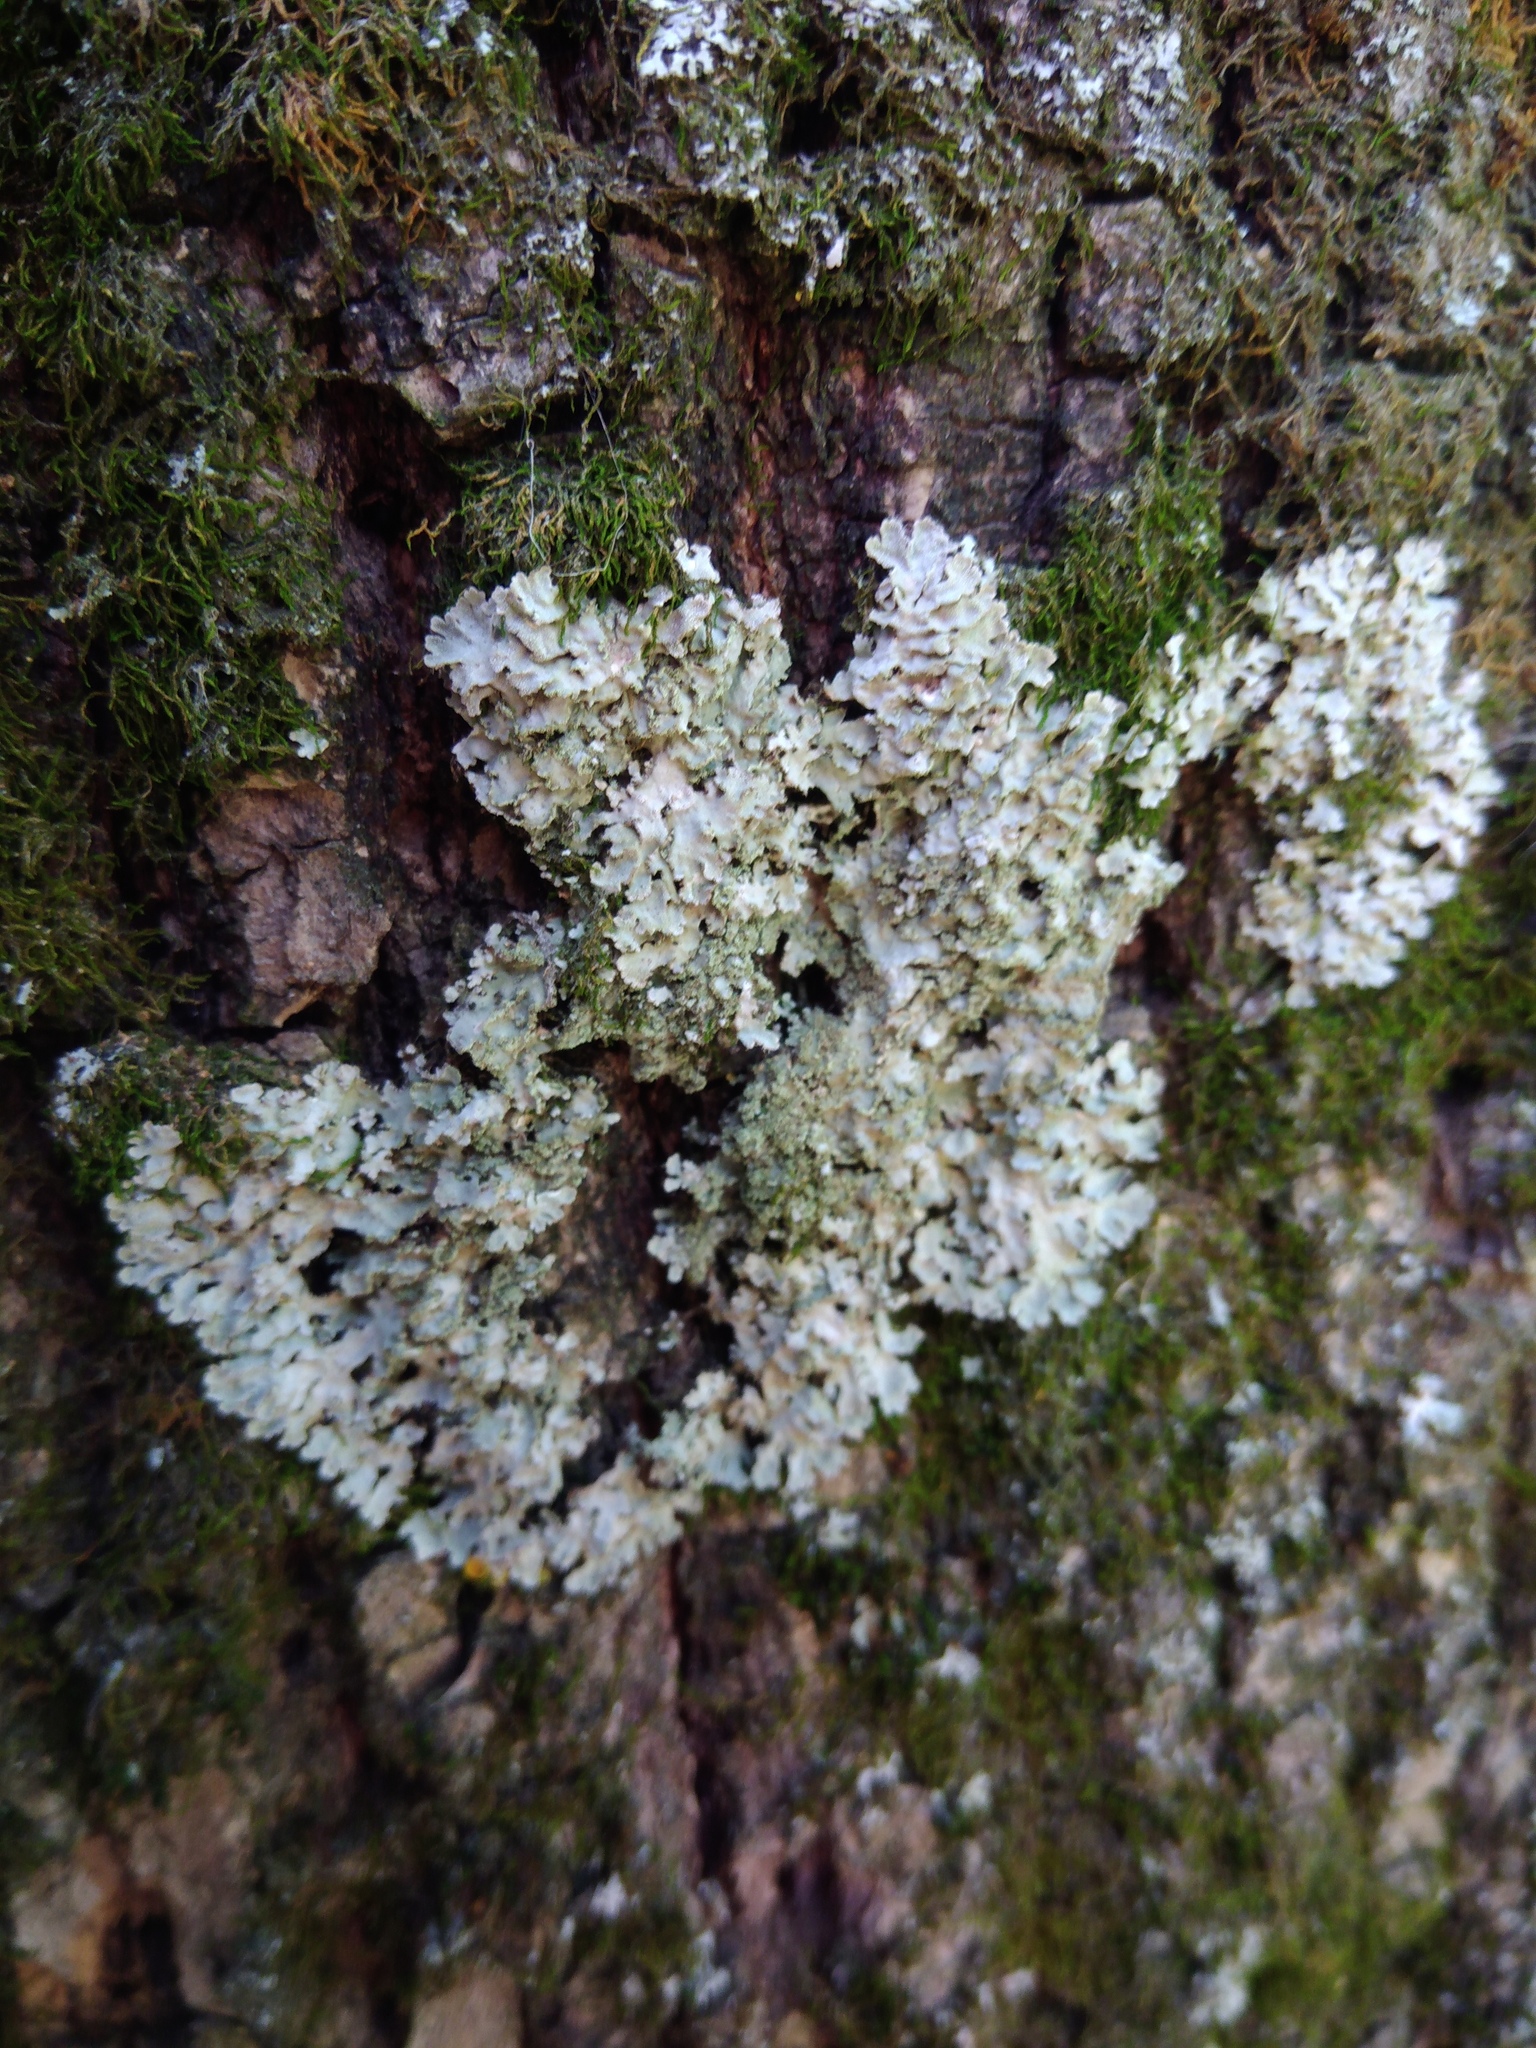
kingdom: Fungi
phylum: Ascomycota
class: Lecanoromycetes
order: Caliciales
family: Physciaceae
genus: Poeltonia
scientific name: Poeltonia grisea
